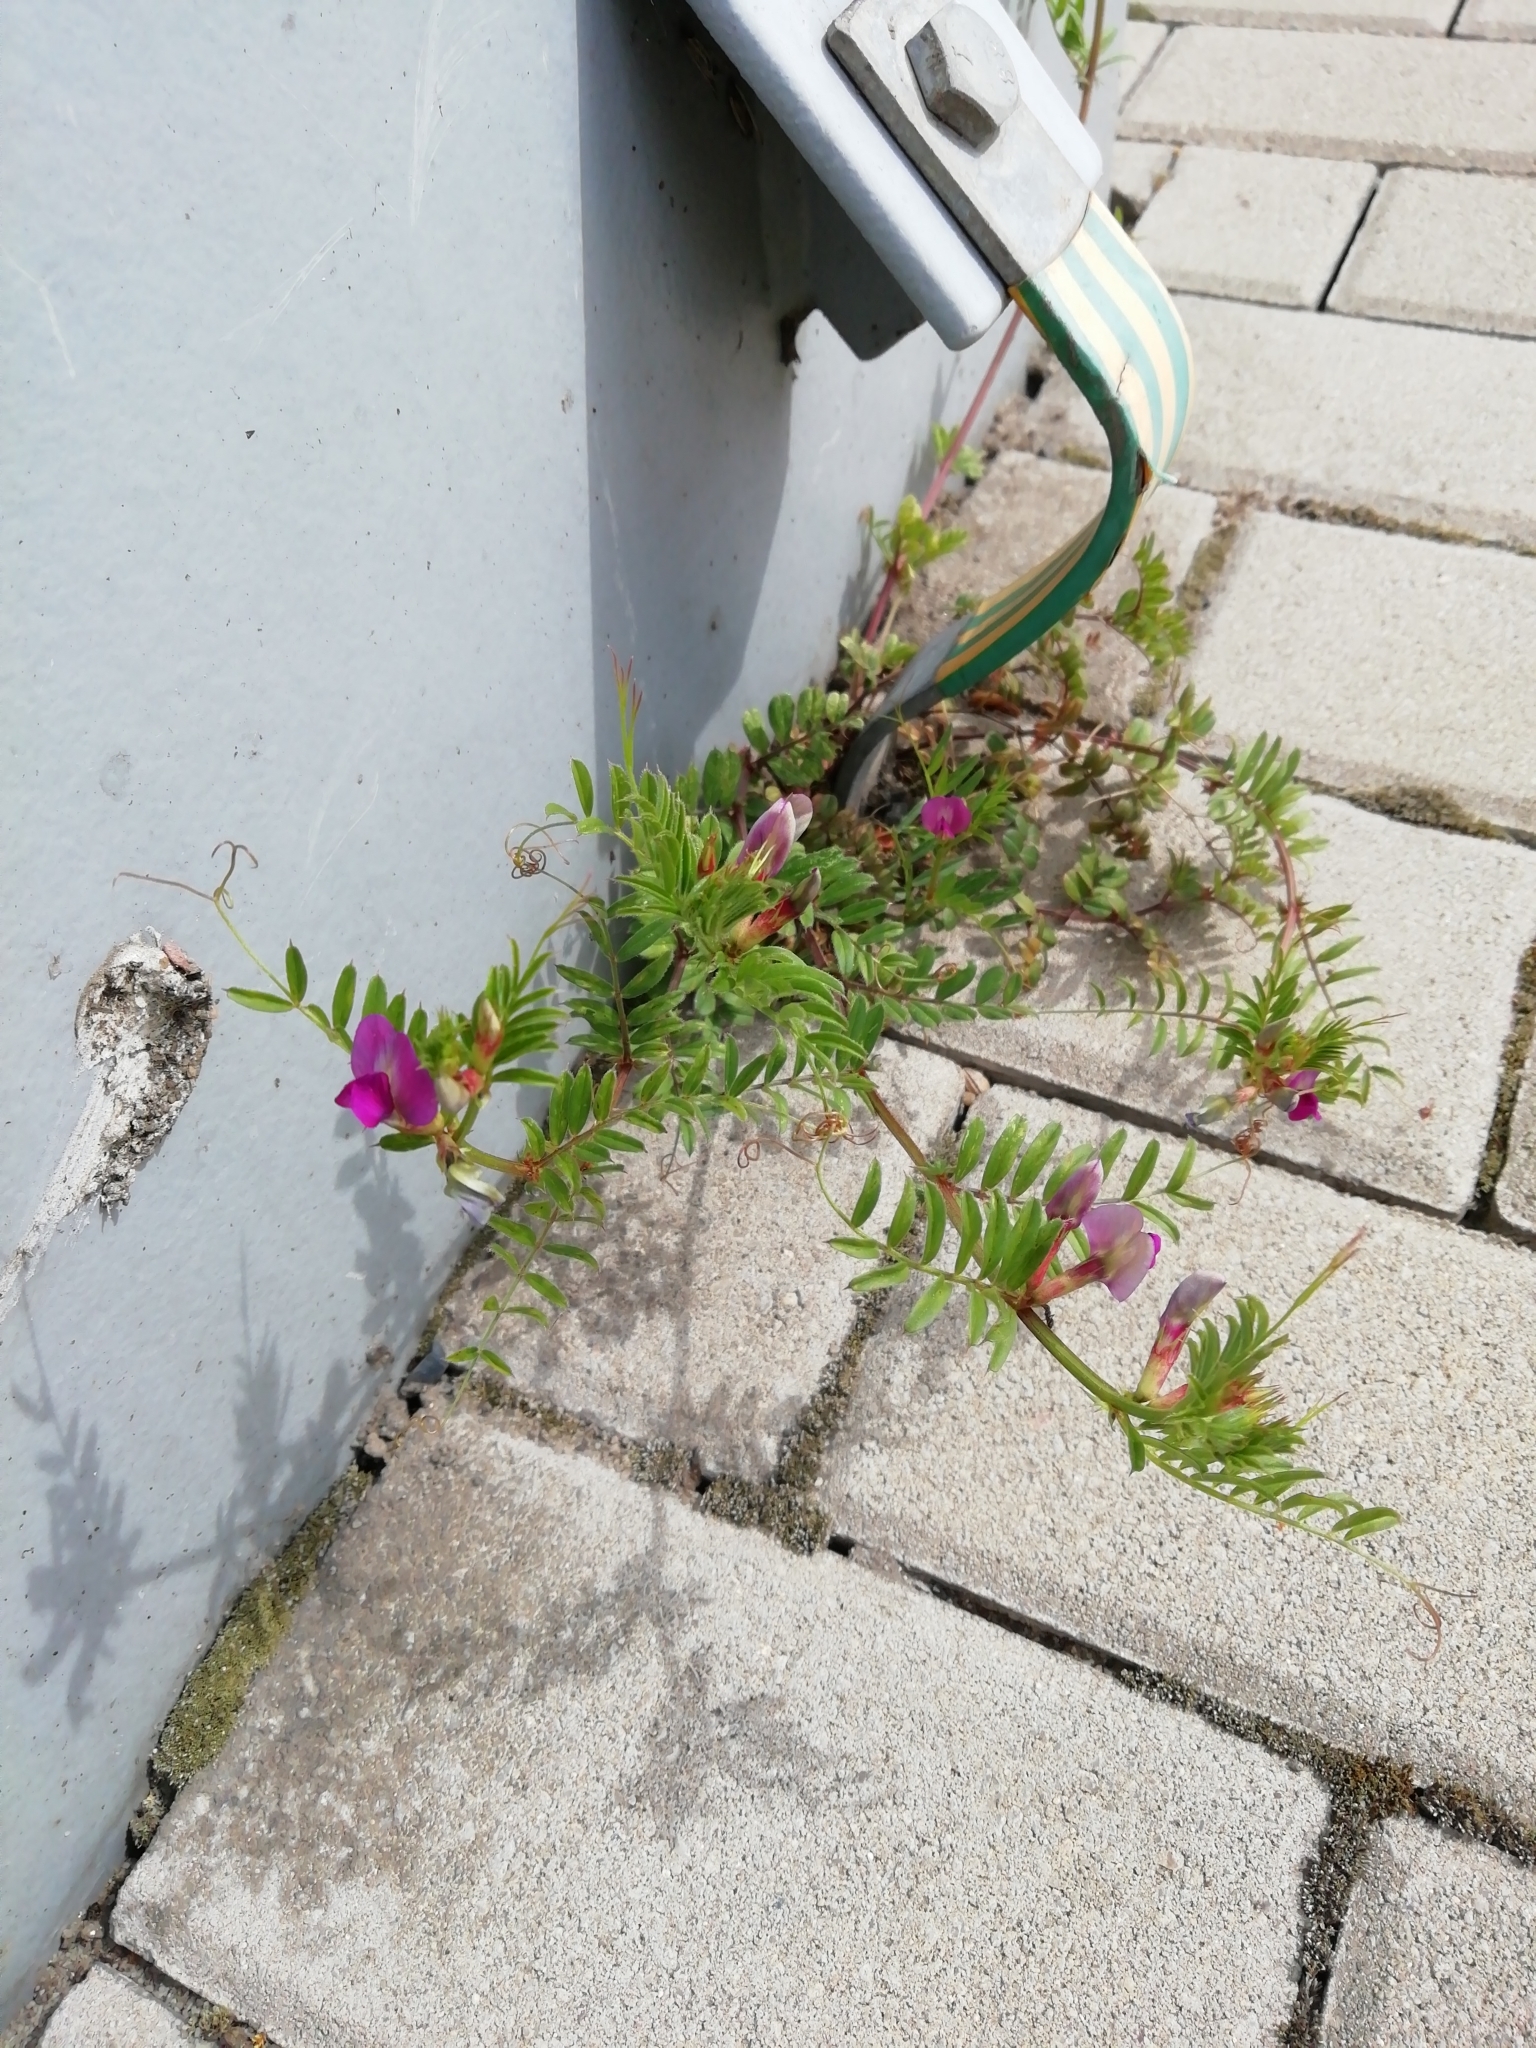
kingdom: Plantae
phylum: Tracheophyta
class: Magnoliopsida
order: Fabales
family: Fabaceae
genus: Vicia
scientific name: Vicia sativa
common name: Garden vetch
